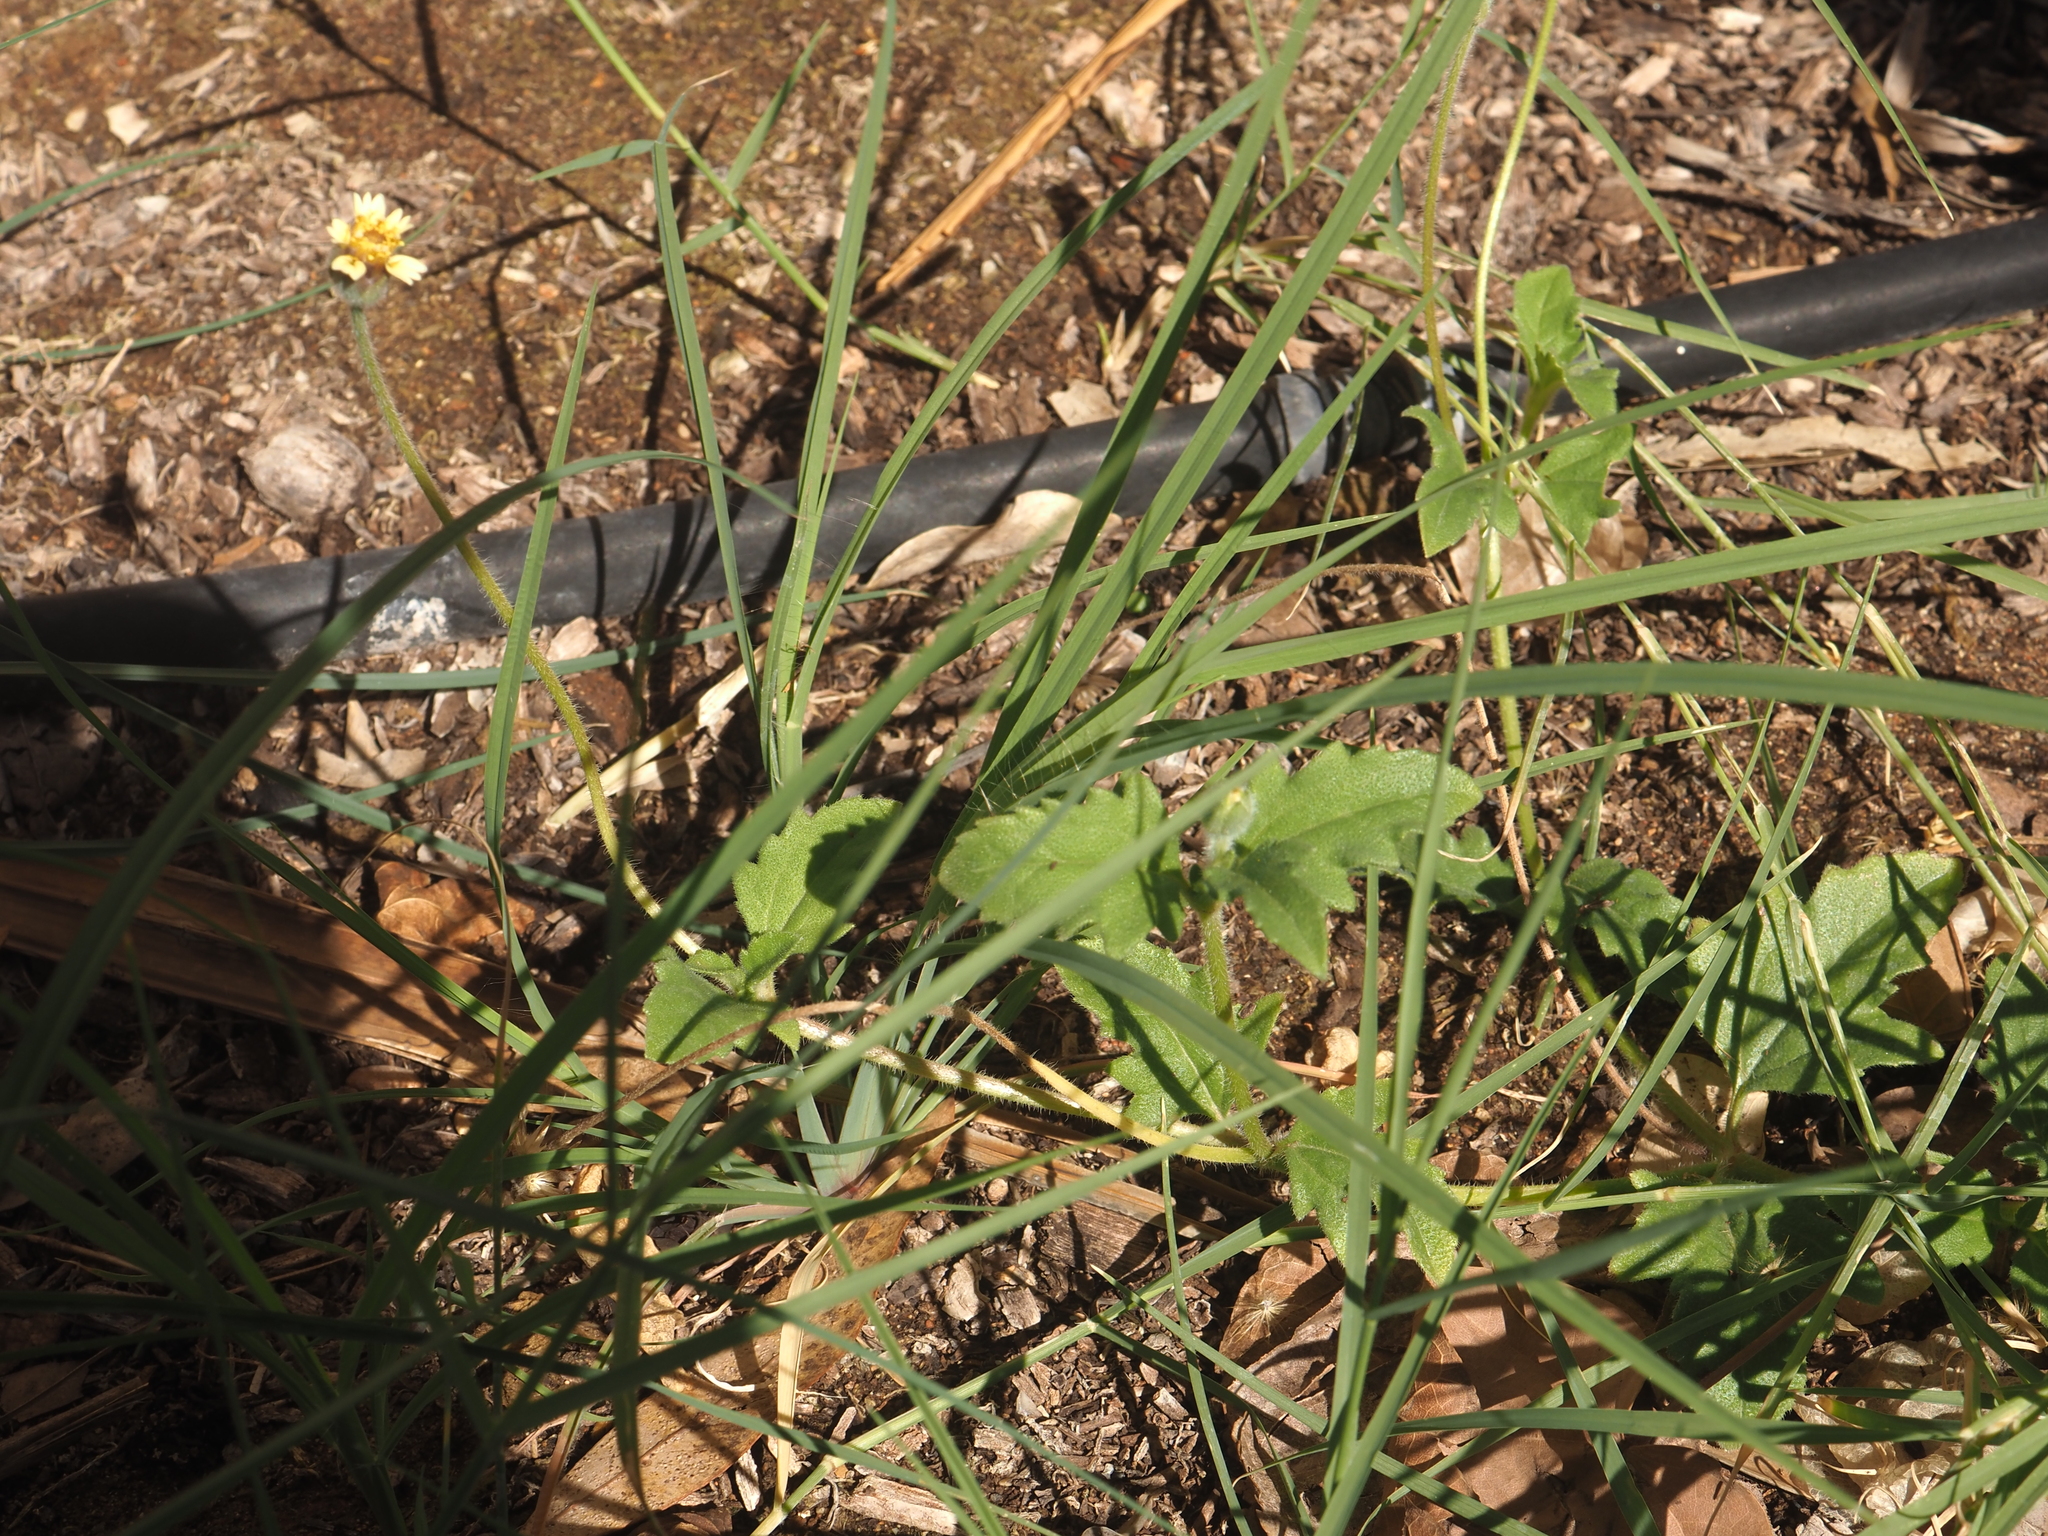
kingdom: Plantae
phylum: Tracheophyta
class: Magnoliopsida
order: Asterales
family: Asteraceae
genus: Tridax
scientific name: Tridax procumbens
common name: Coatbuttons
